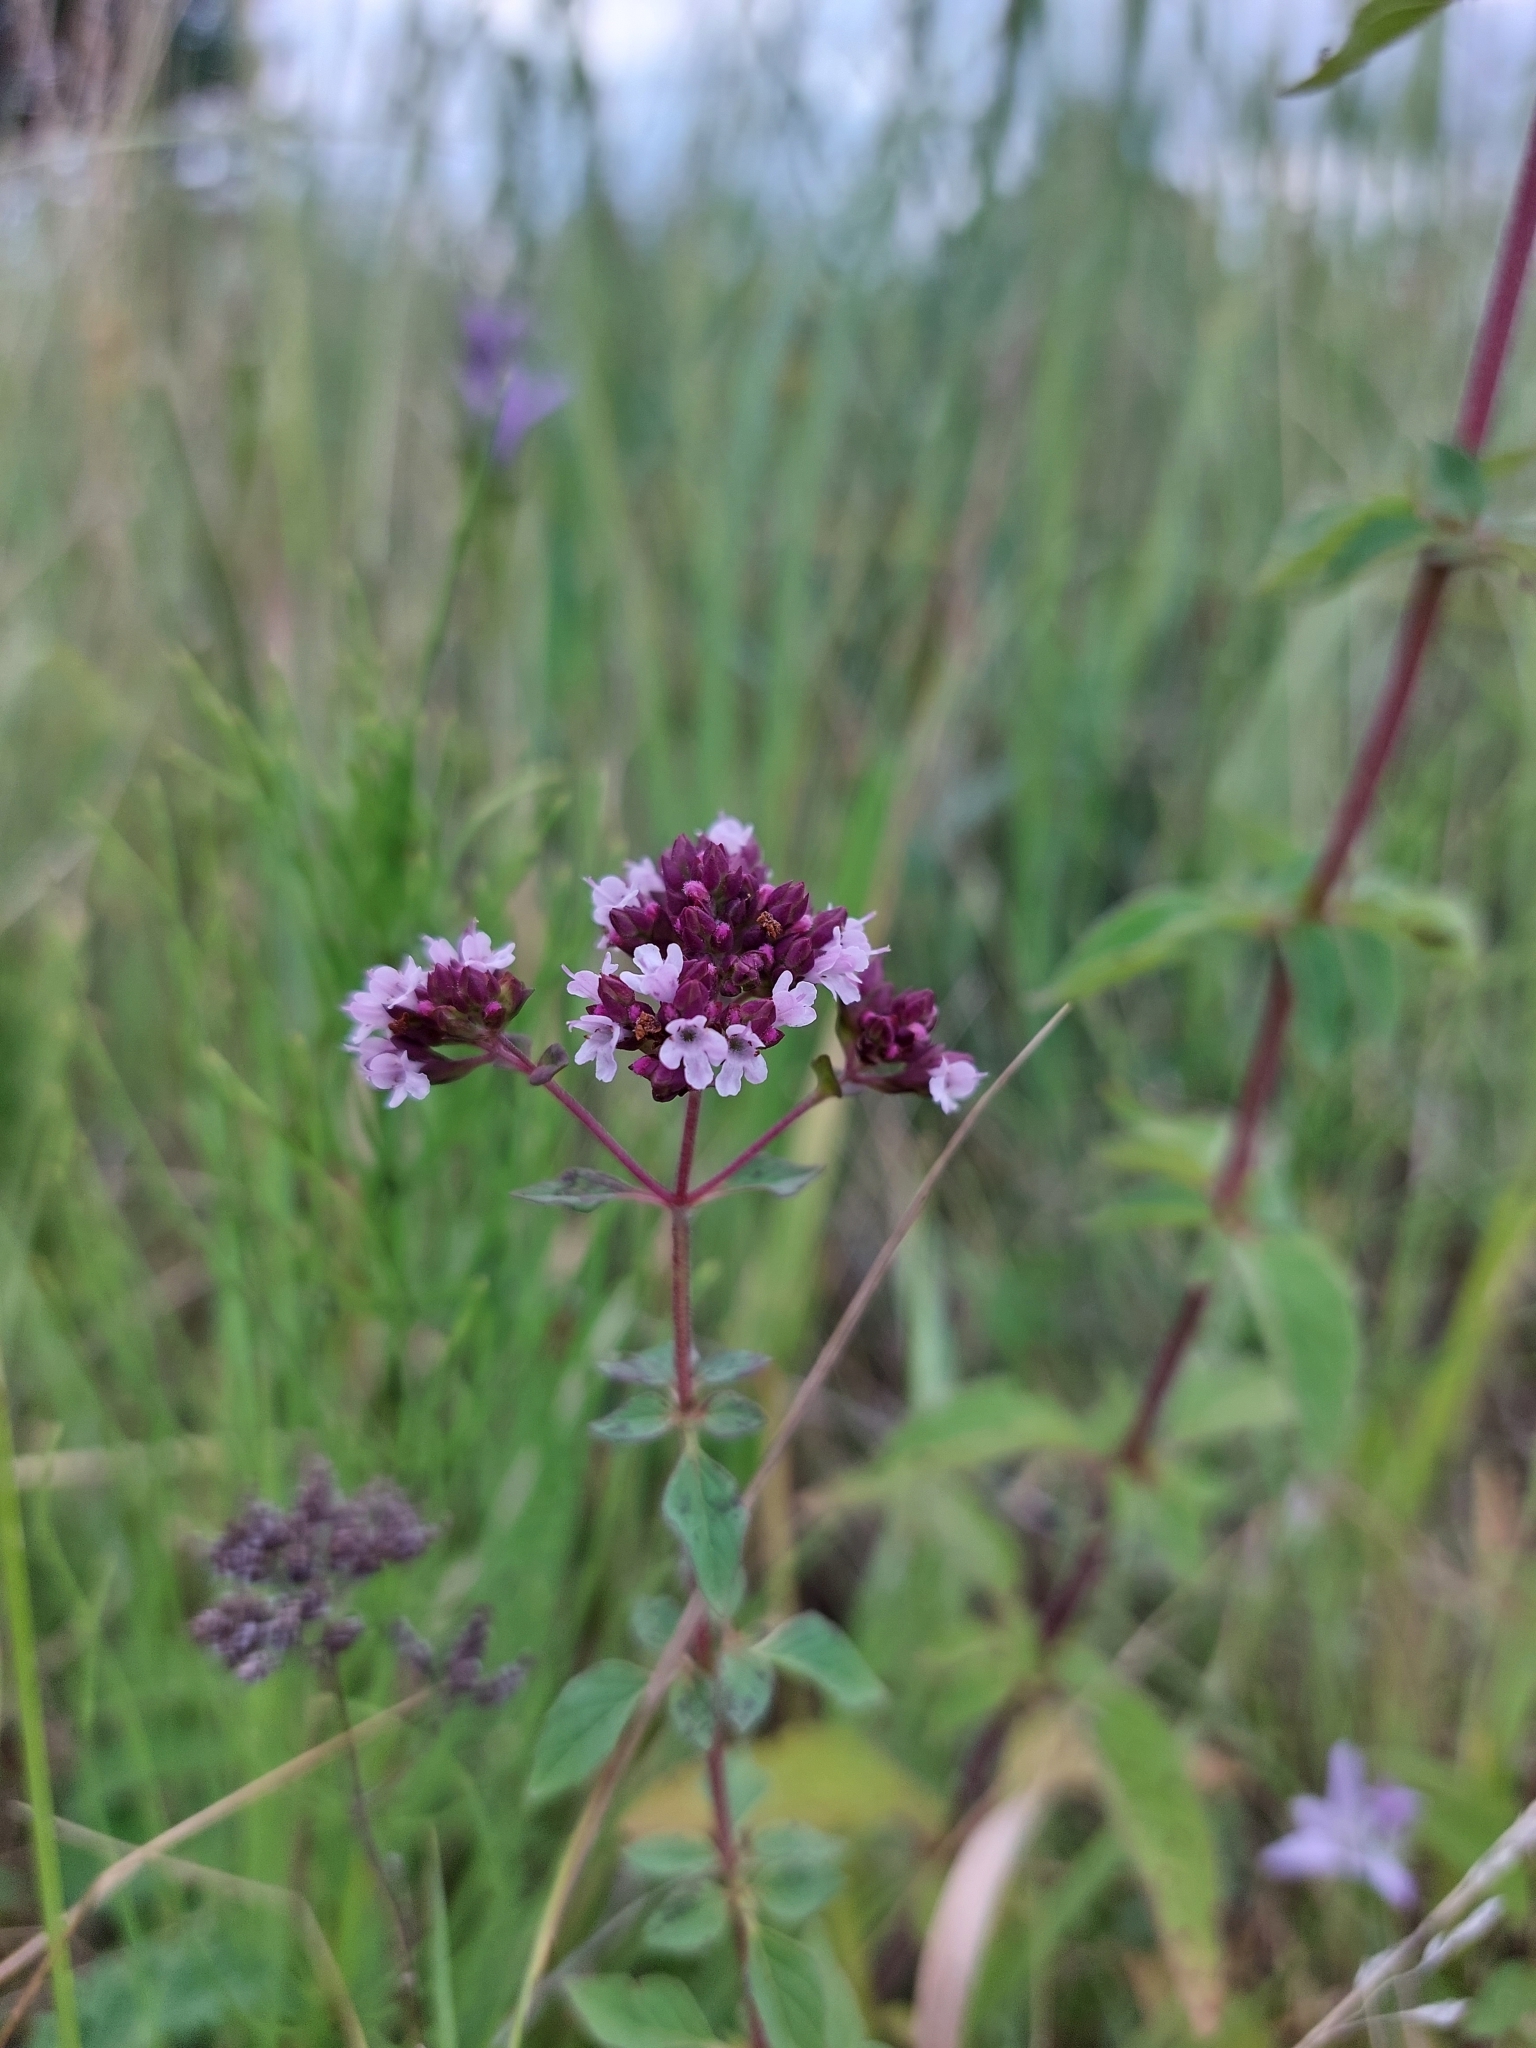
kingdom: Plantae
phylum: Tracheophyta
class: Magnoliopsida
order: Lamiales
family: Lamiaceae
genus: Origanum
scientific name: Origanum vulgare
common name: Wild marjoram
